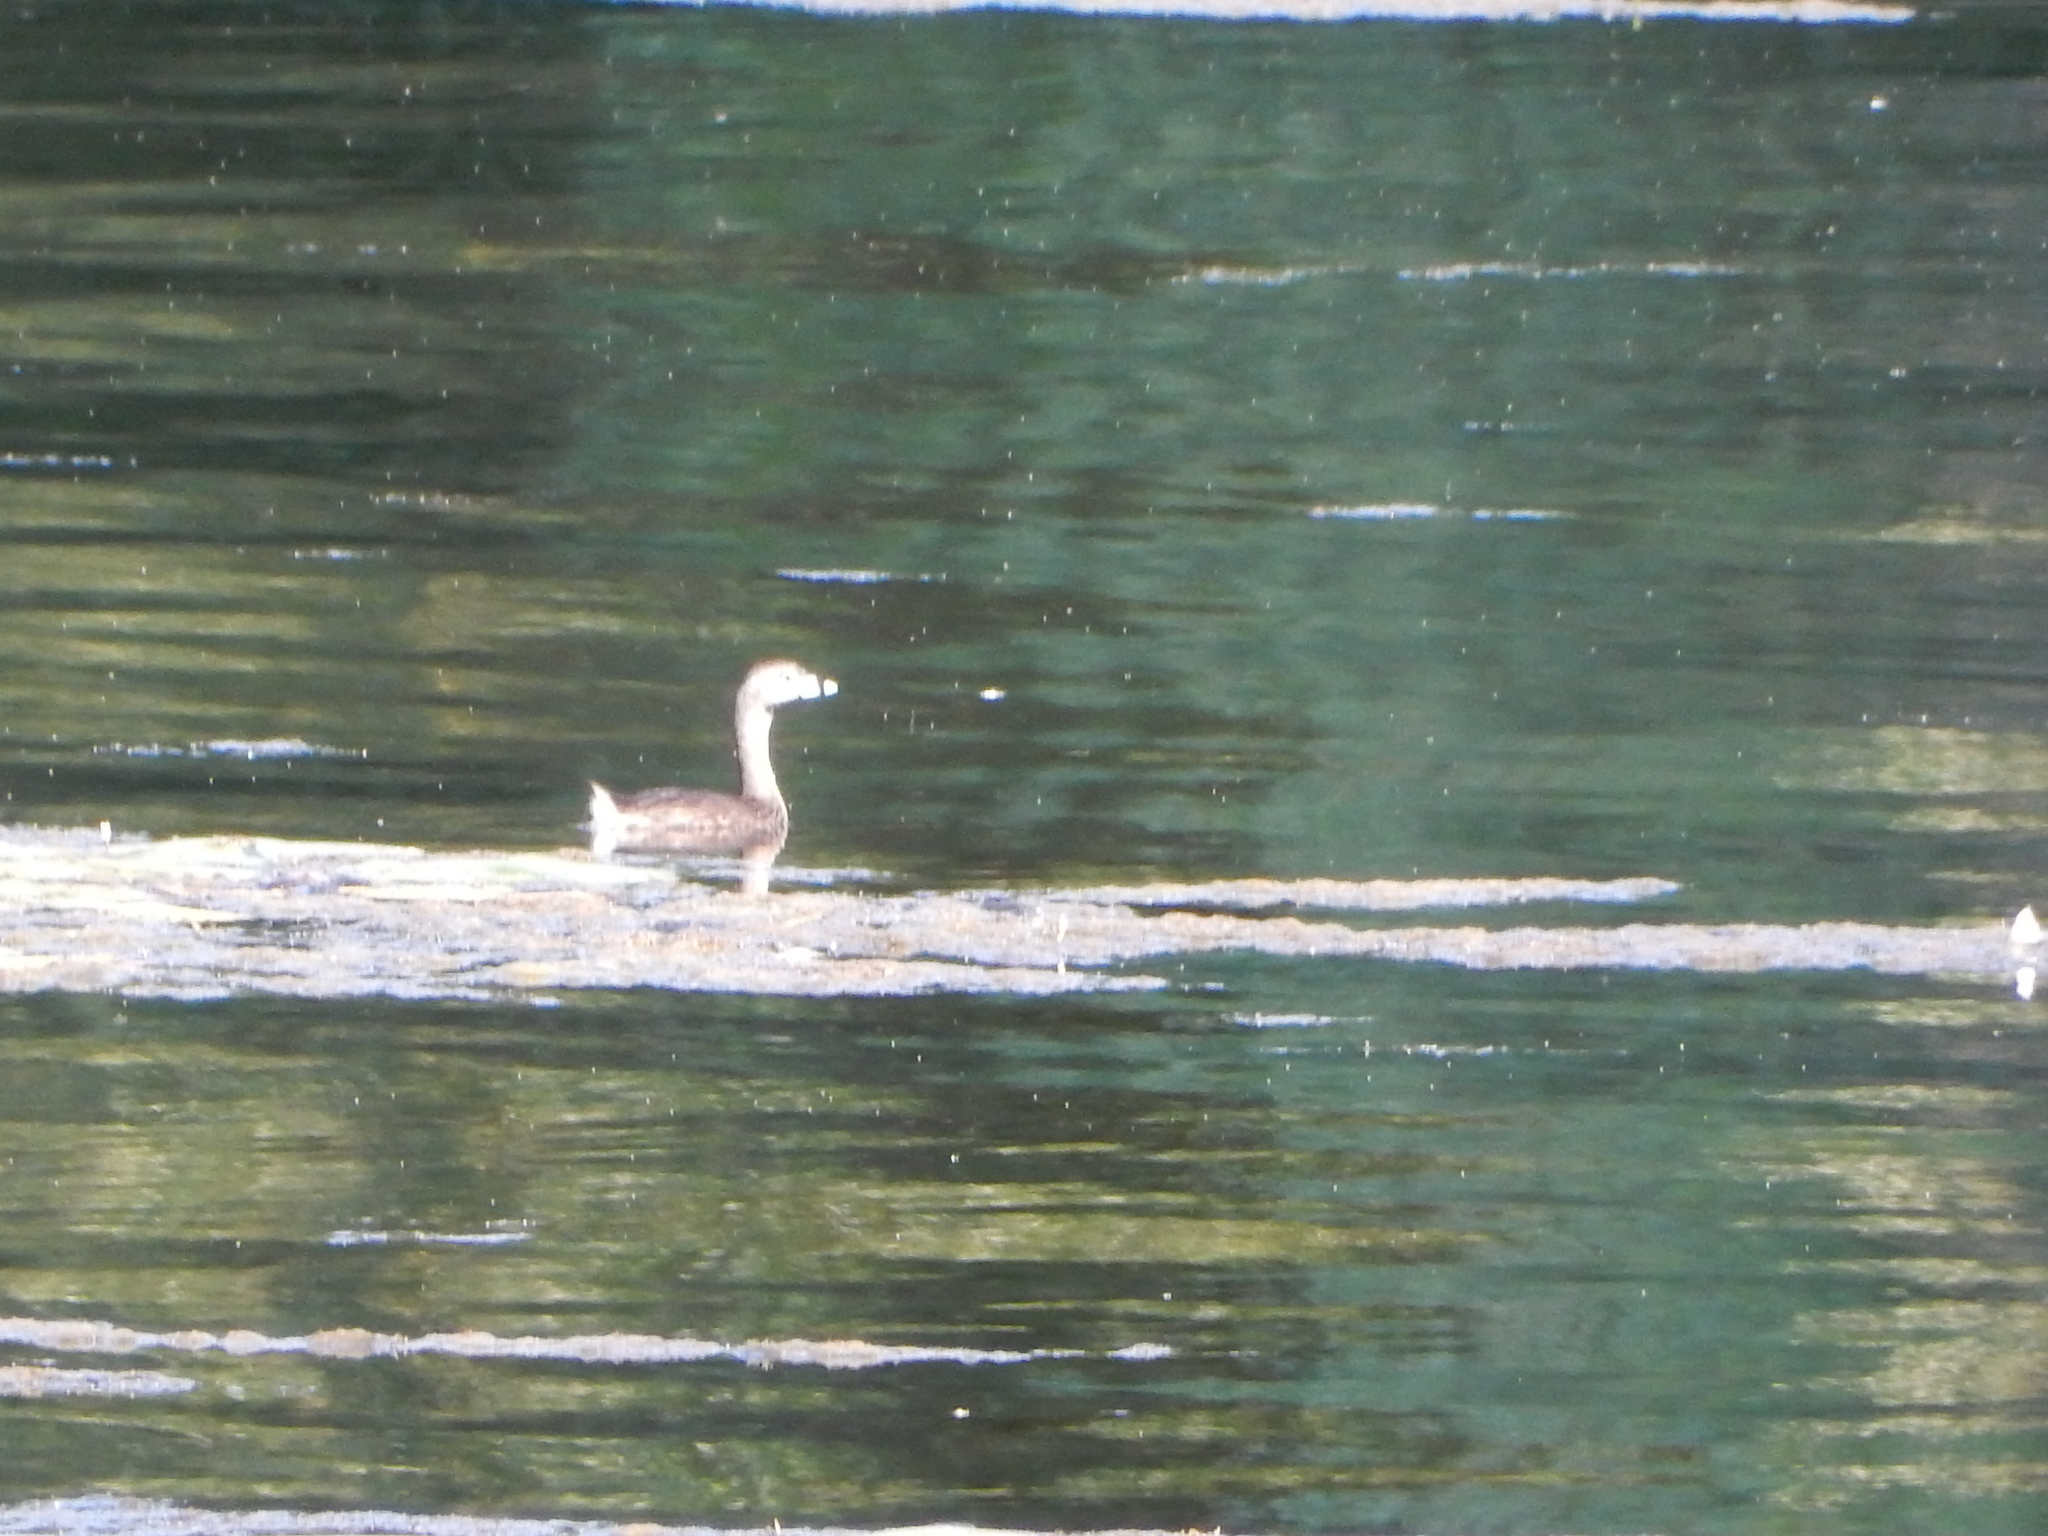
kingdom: Animalia
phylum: Chordata
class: Aves
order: Podicipediformes
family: Podicipedidae
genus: Podilymbus
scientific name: Podilymbus podiceps
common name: Pied-billed grebe
